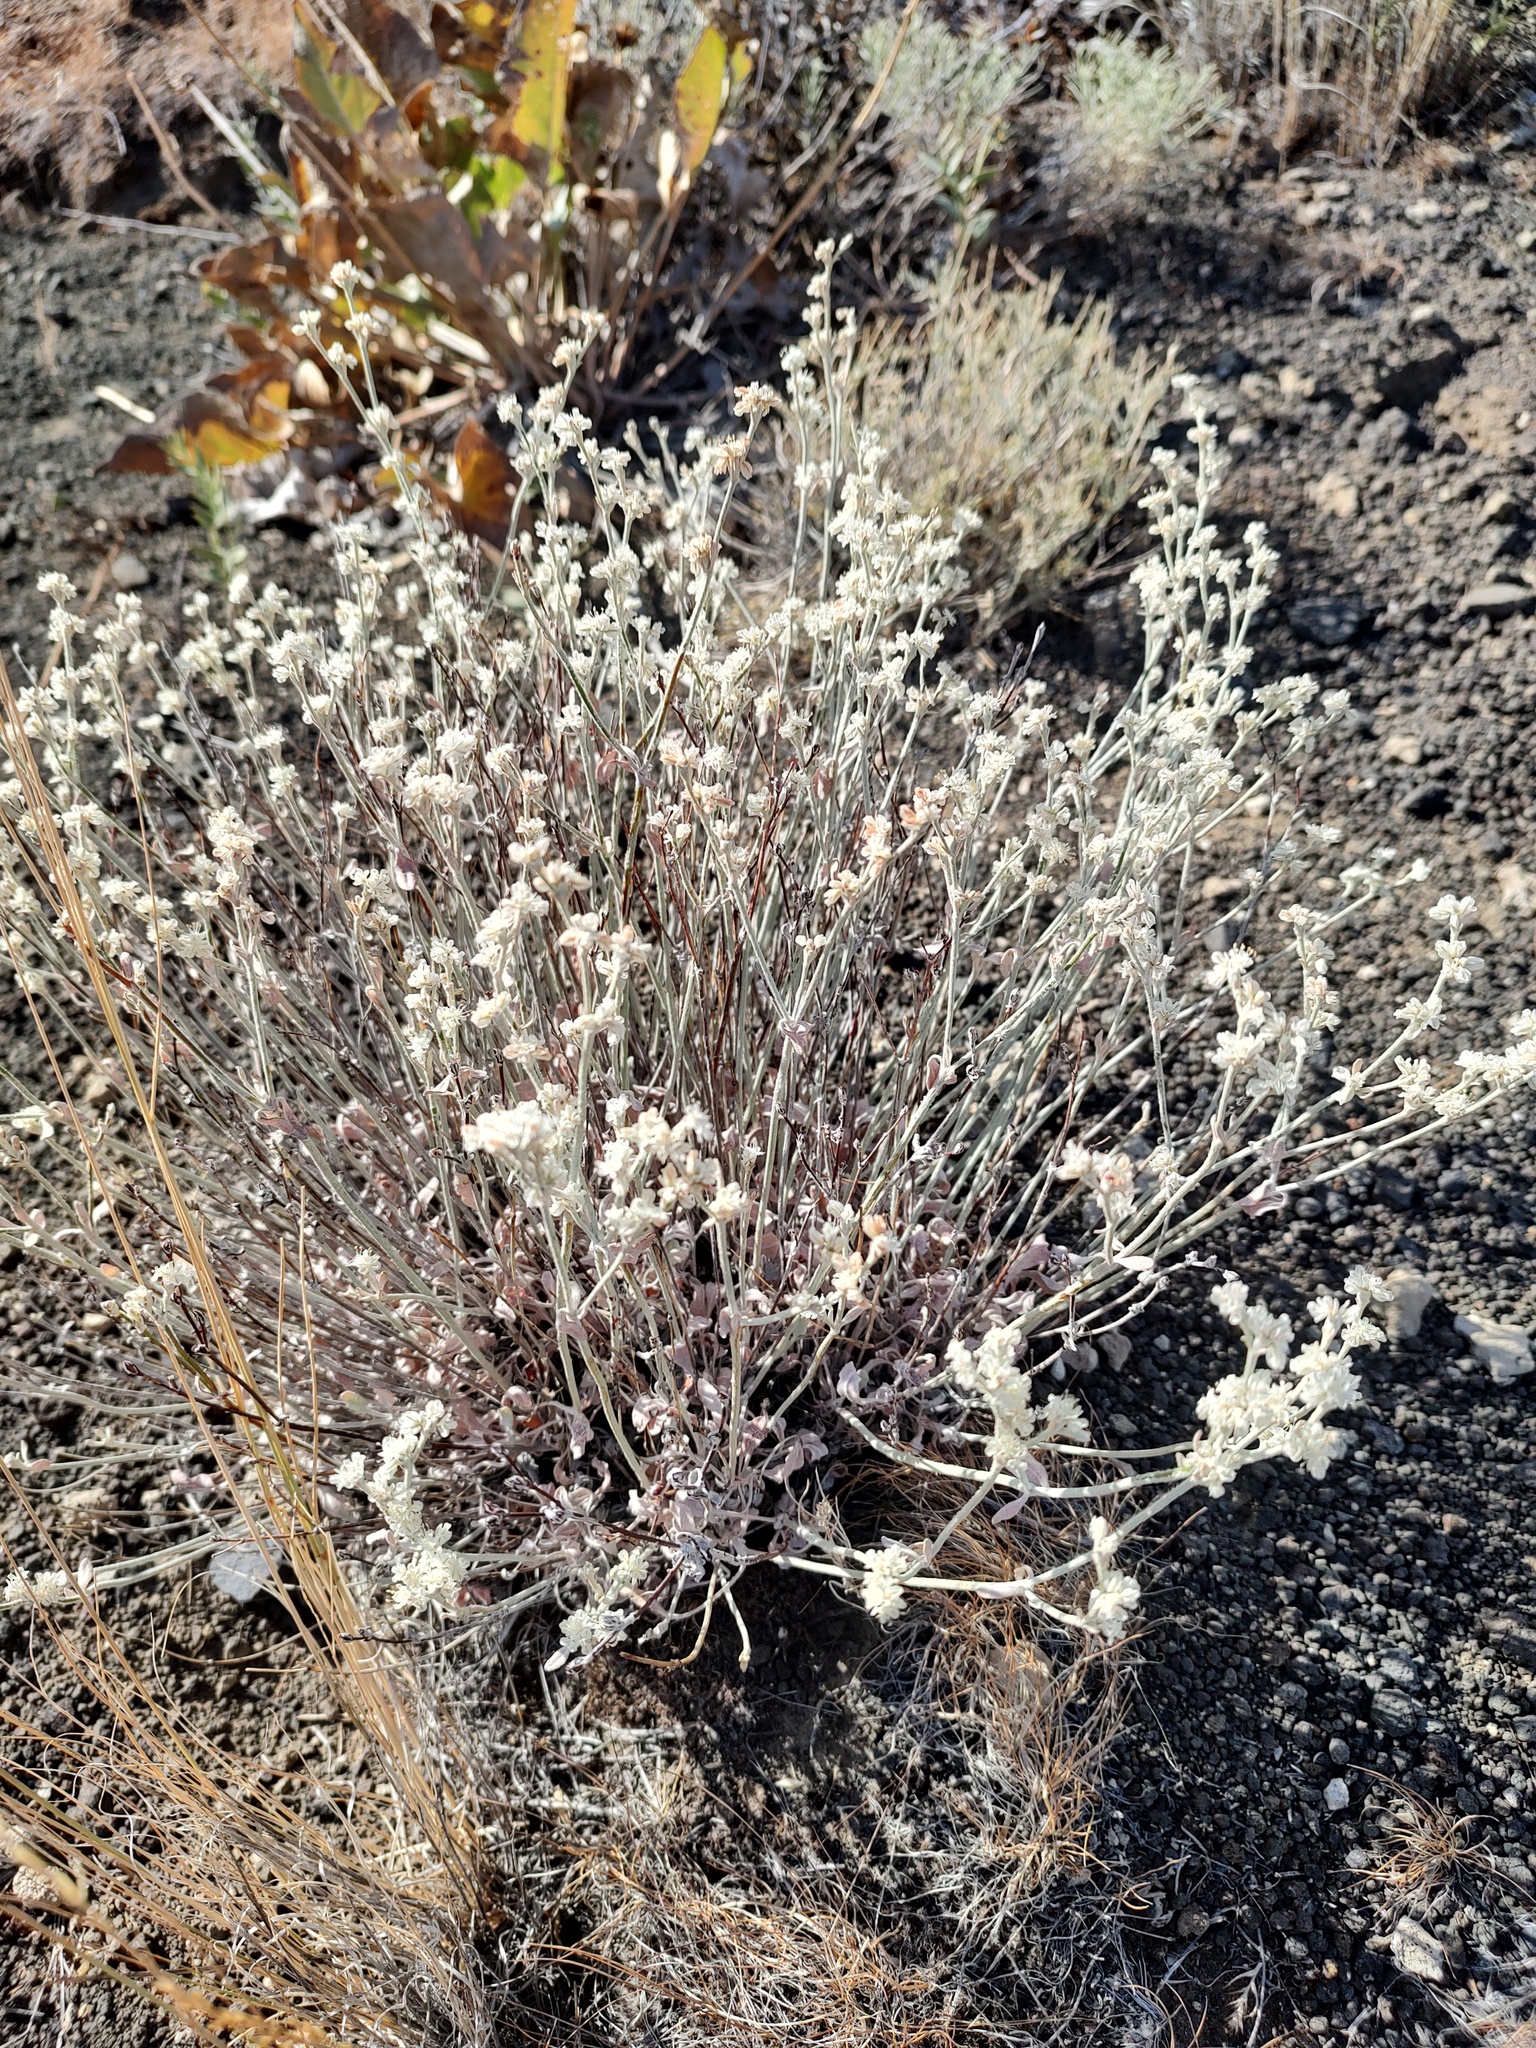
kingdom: Plantae
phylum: Tracheophyta
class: Magnoliopsida
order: Caryophyllales
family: Polygonaceae
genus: Eriogonum
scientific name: Eriogonum niveum
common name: Snow wild buckwheat
